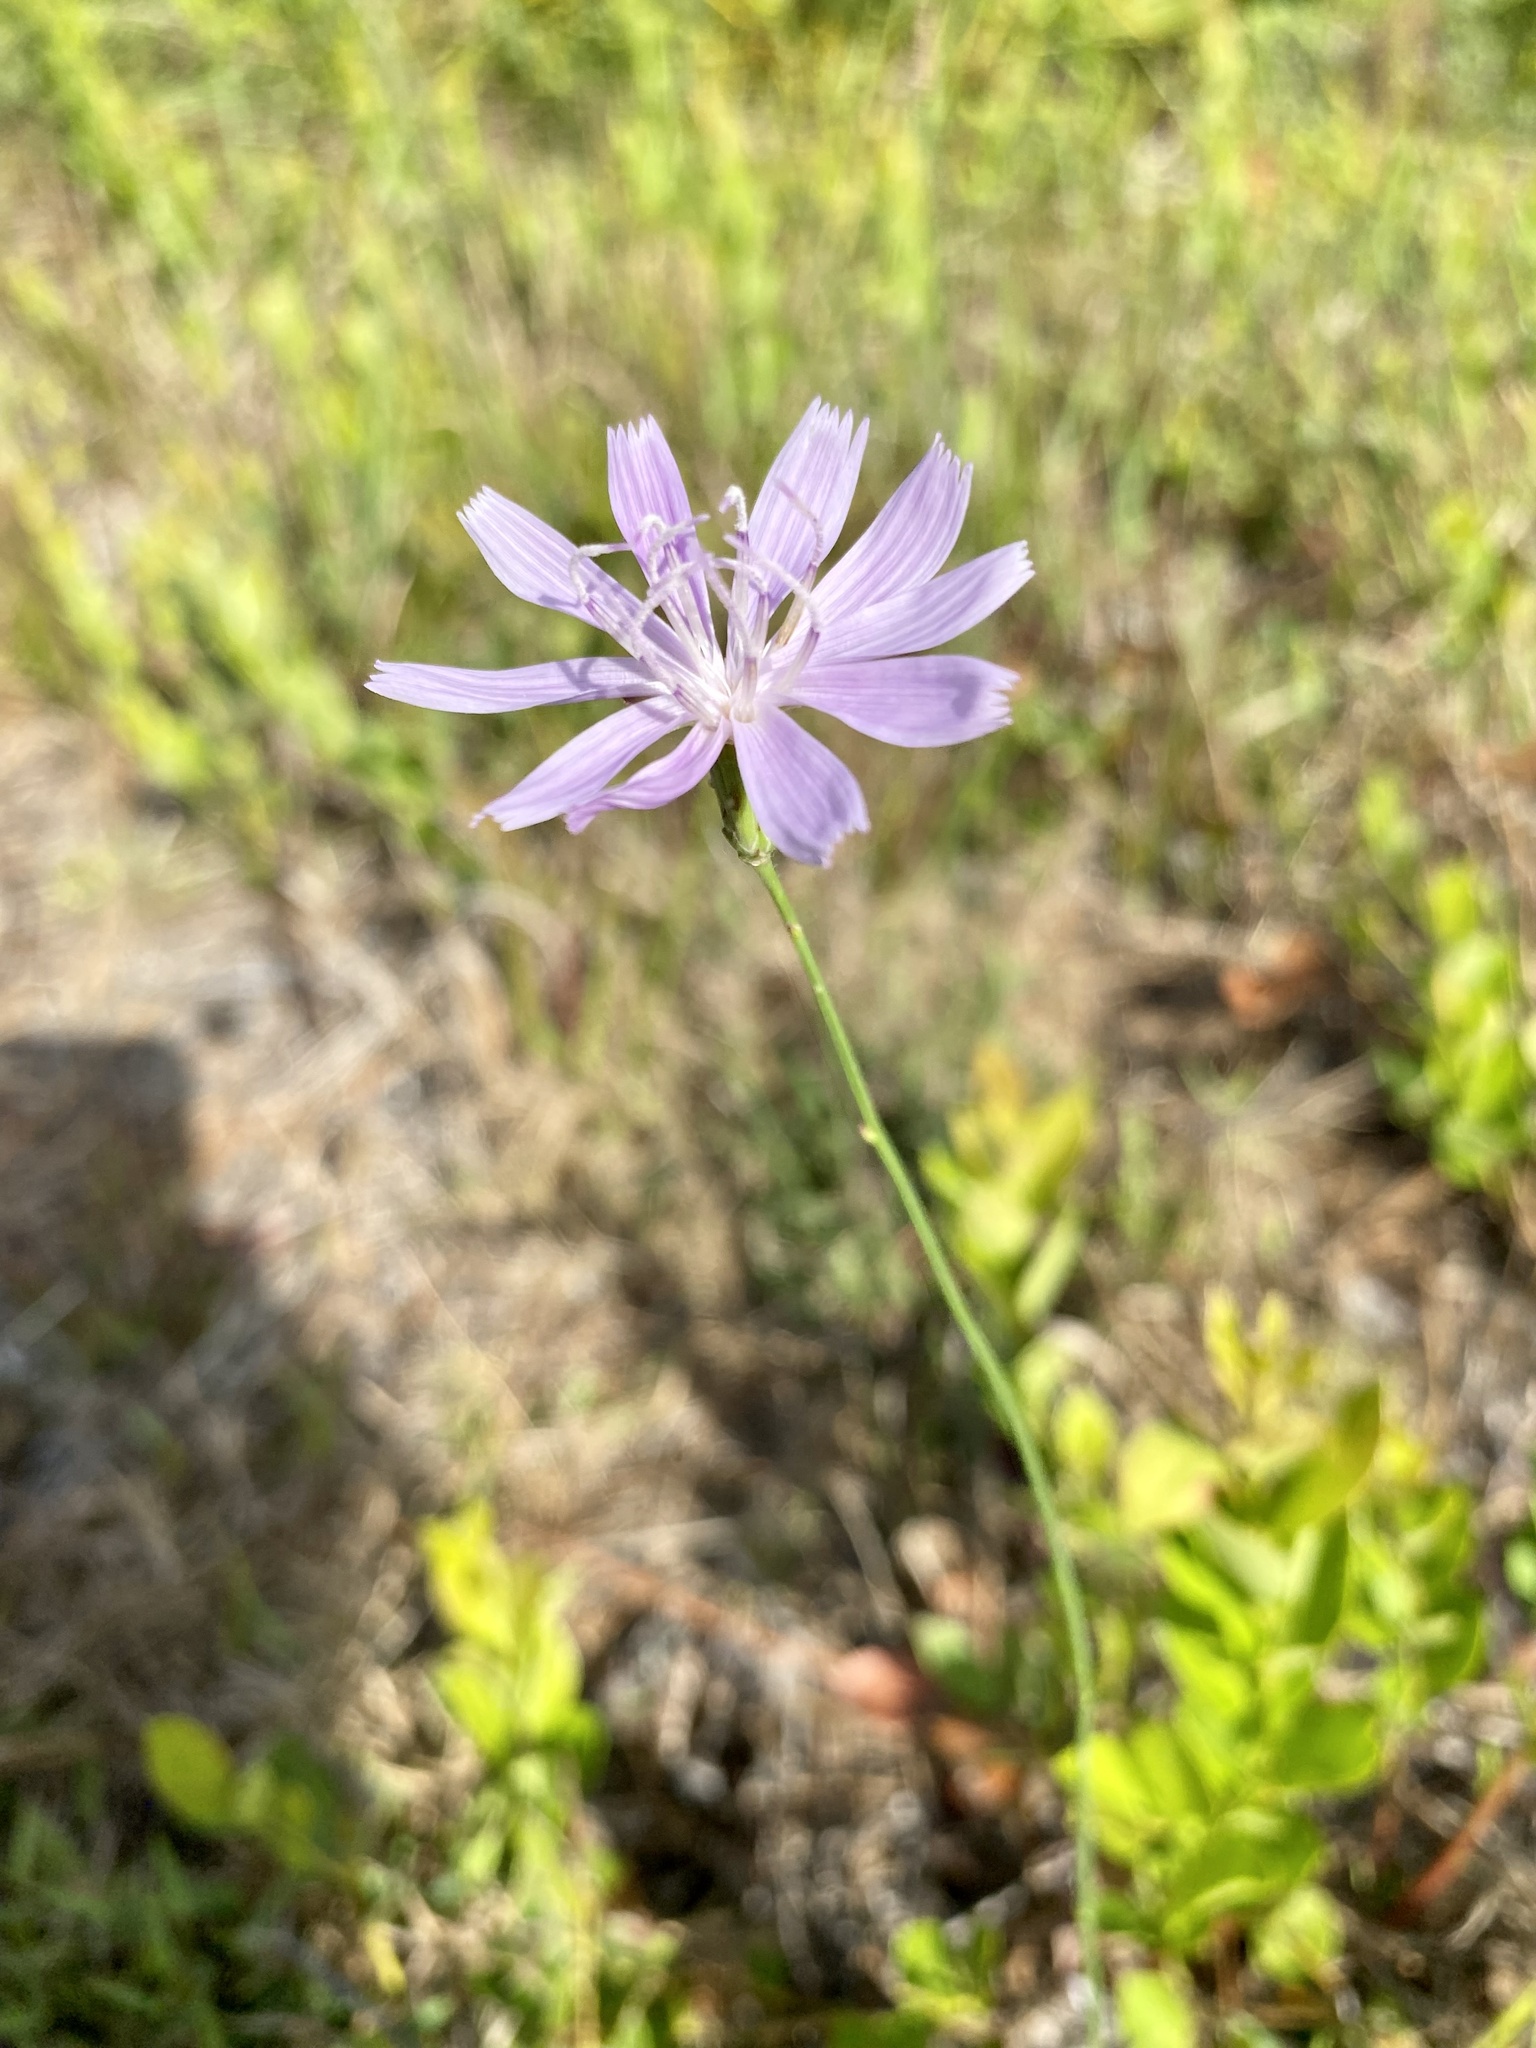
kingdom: Plantae
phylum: Tracheophyta
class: Magnoliopsida
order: Asterales
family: Asteraceae
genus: Lygodesmia
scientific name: Lygodesmia aphylla
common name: Rose-rush
